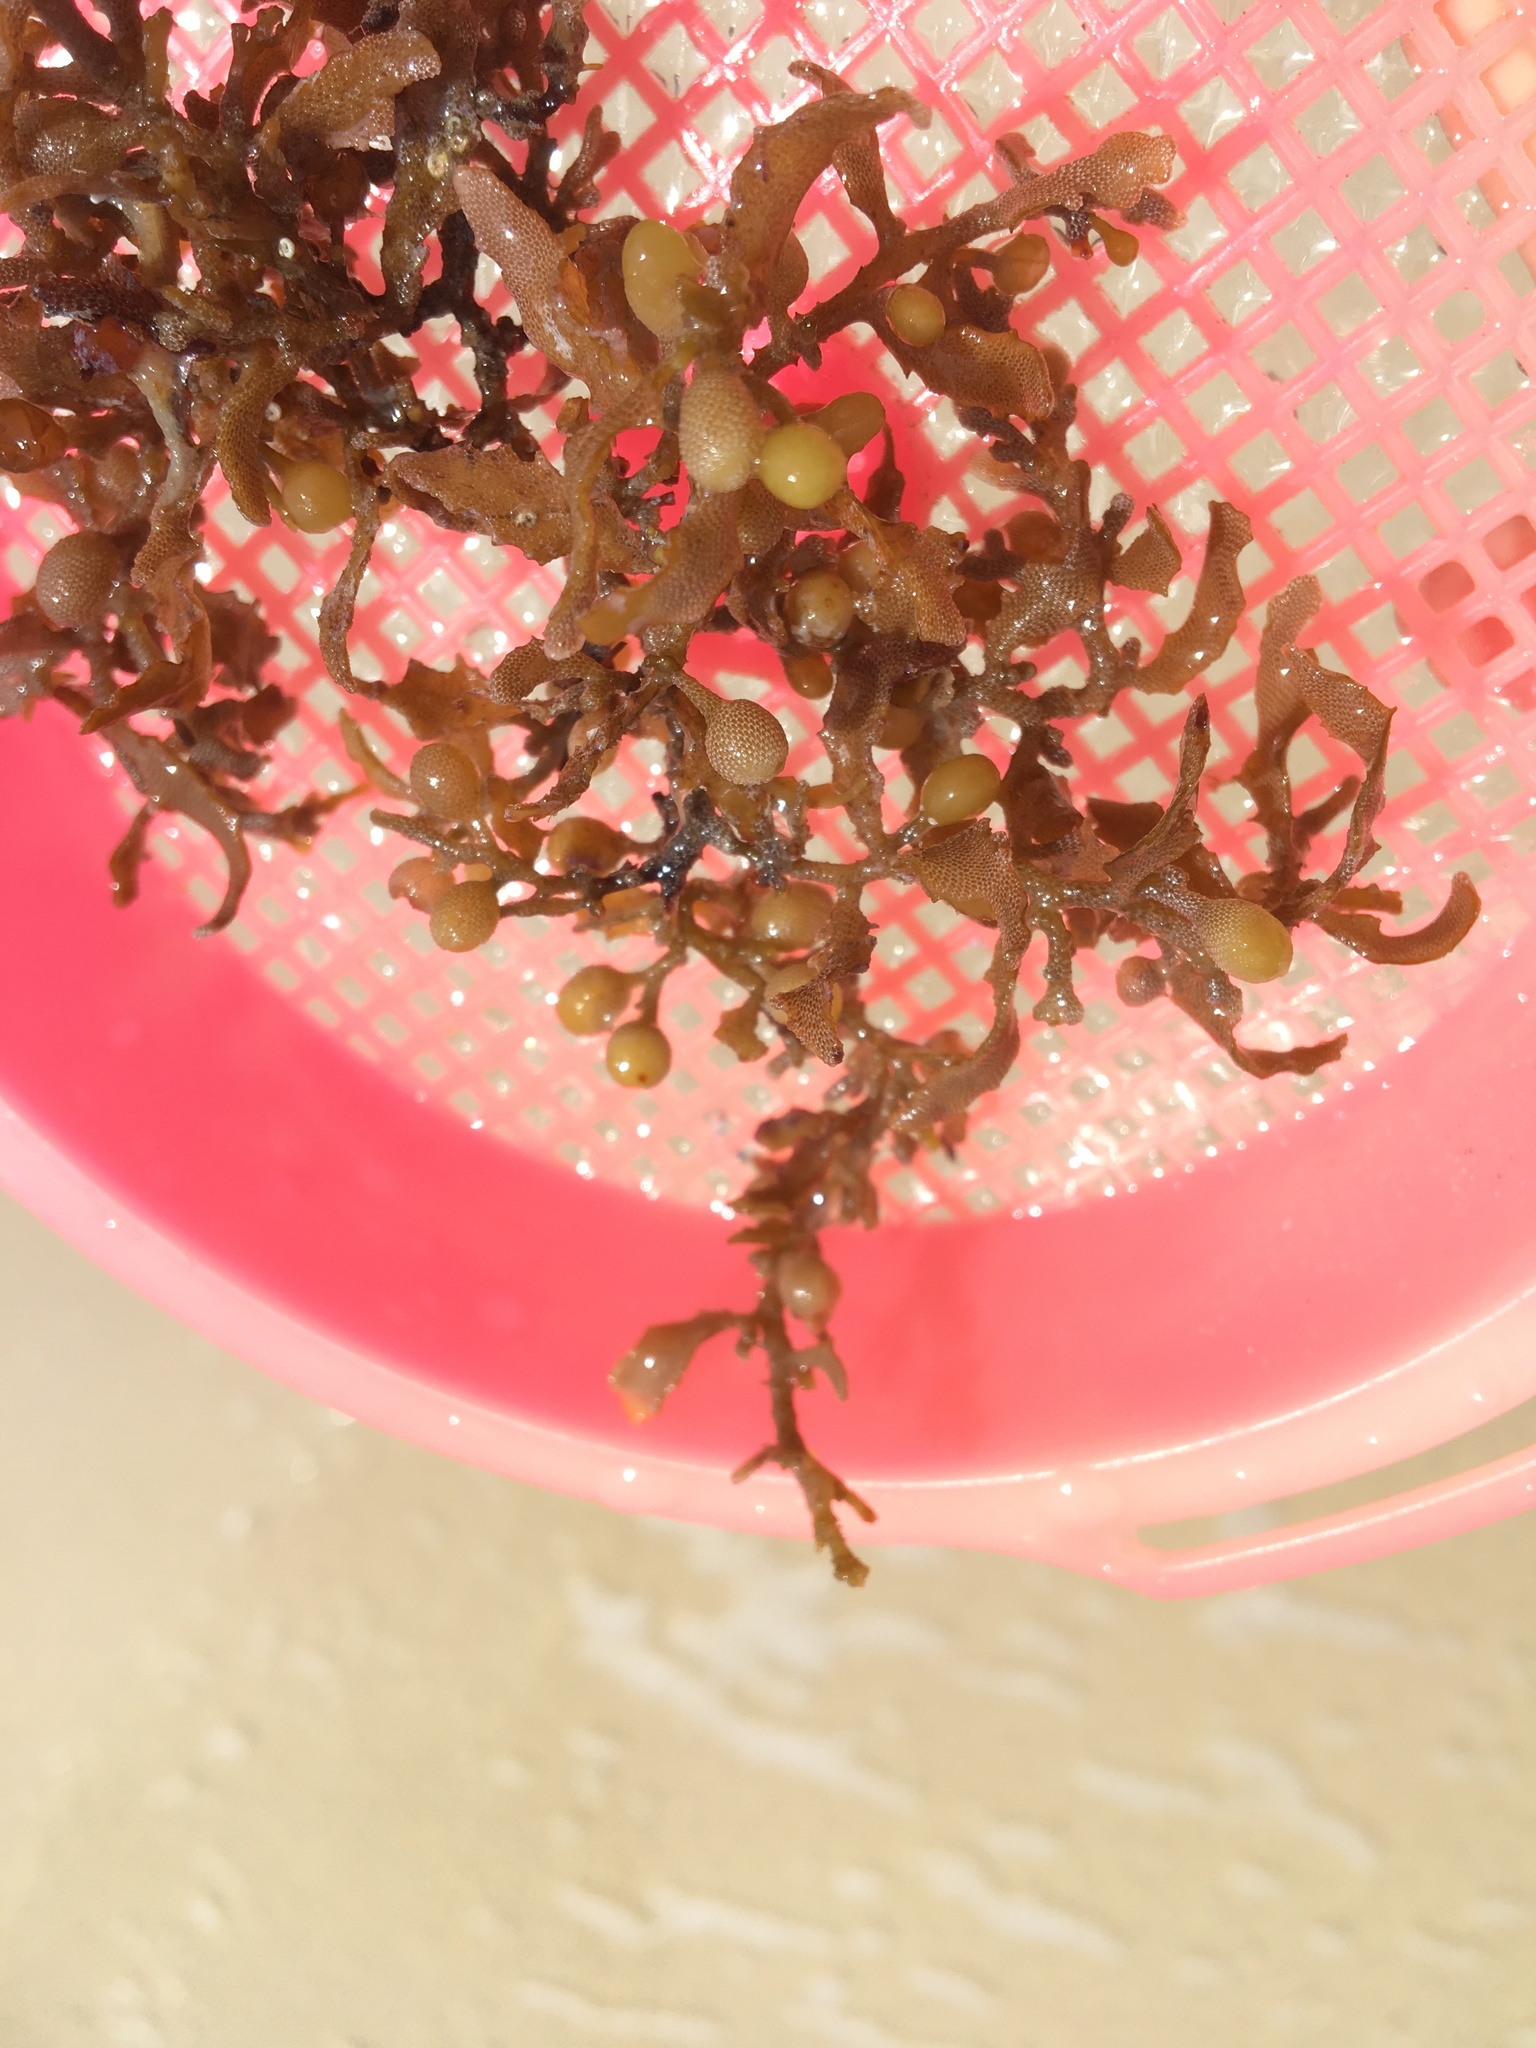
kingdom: Chromista
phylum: Ochrophyta
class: Phaeophyceae
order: Fucales
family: Sargassaceae
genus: Sargassum
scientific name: Sargassum fluitans
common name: Sargassum seaweed
